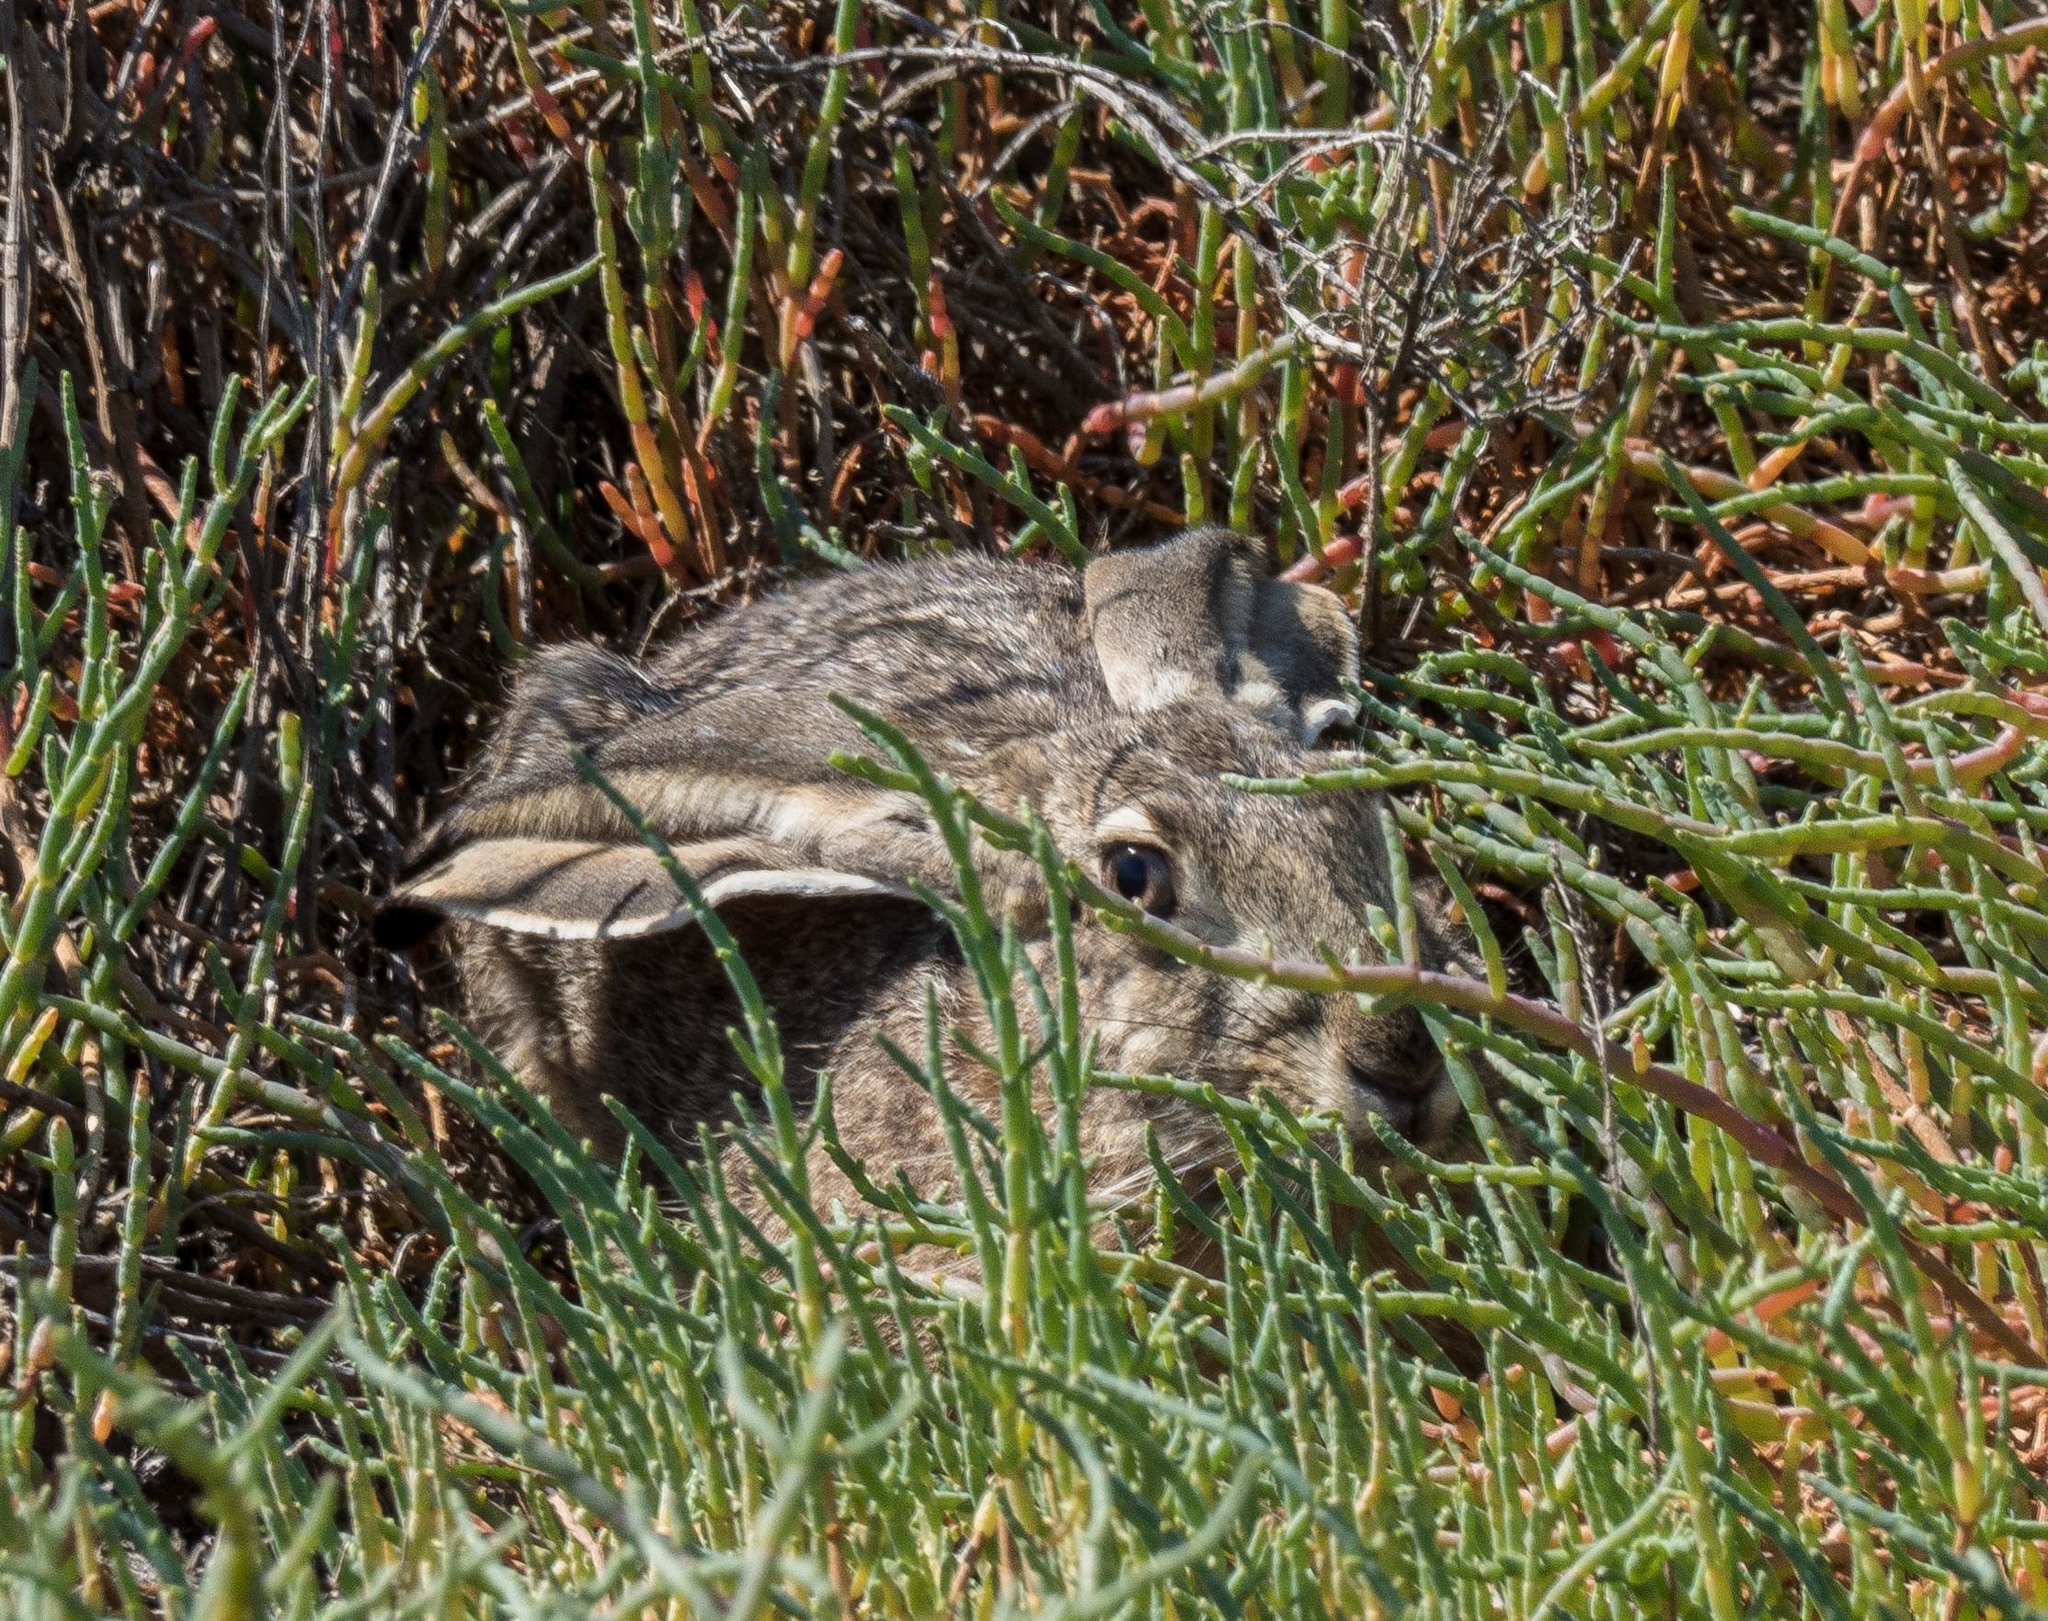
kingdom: Animalia
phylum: Chordata
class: Mammalia
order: Lagomorpha
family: Leporidae
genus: Lepus
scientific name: Lepus californicus
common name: Black-tailed jackrabbit
